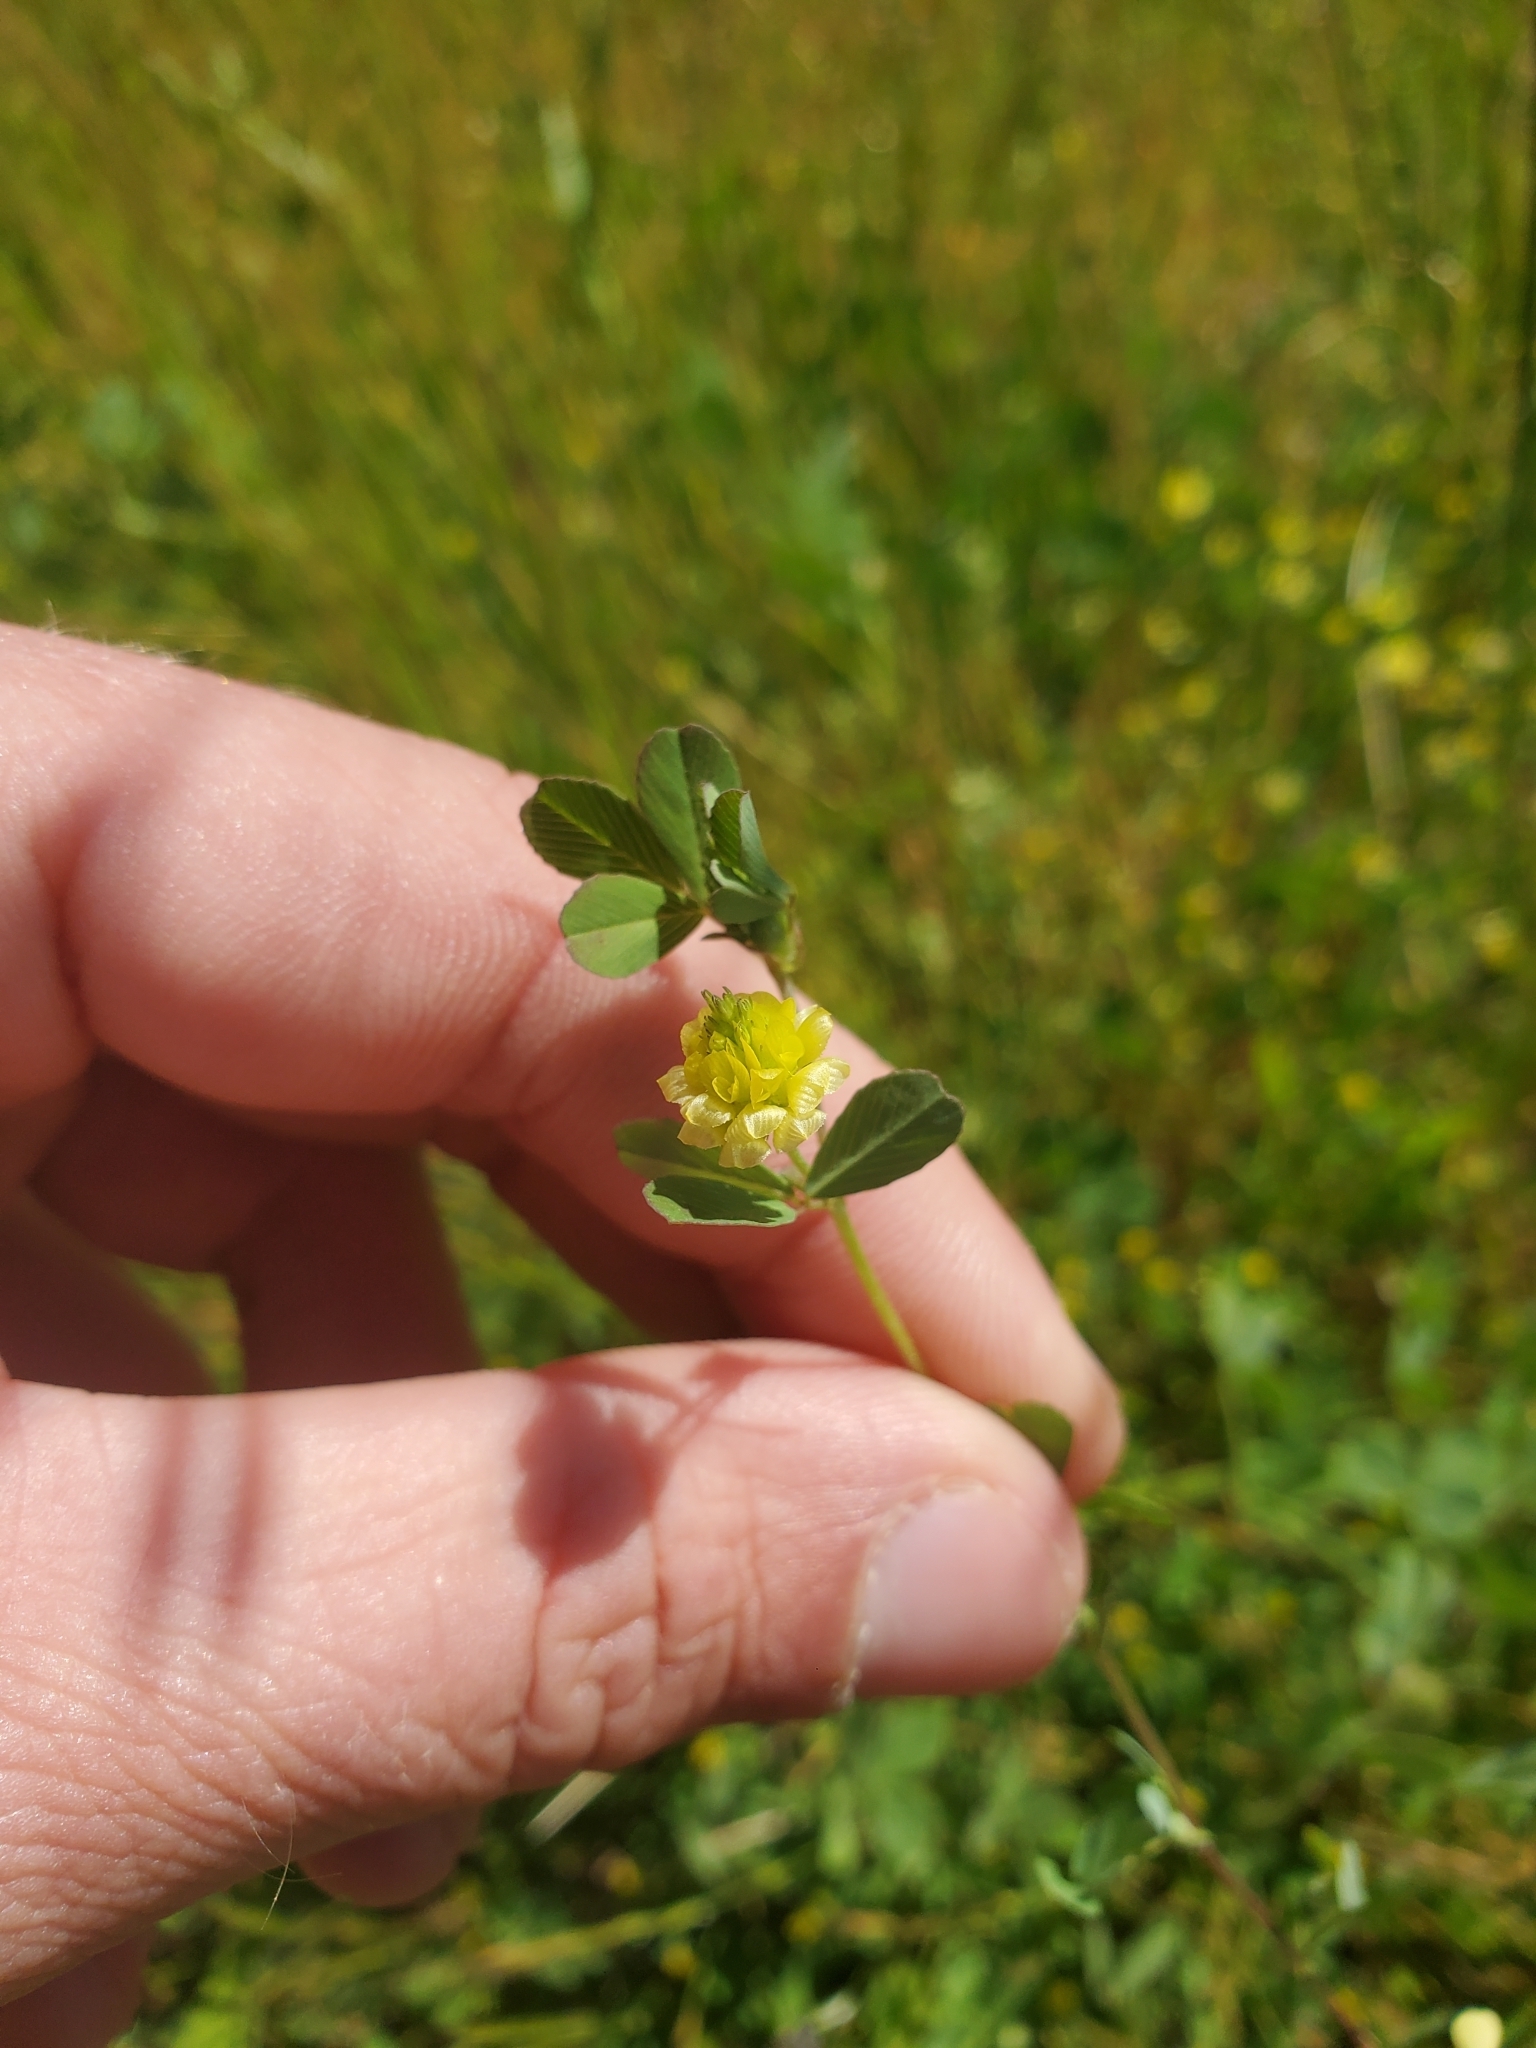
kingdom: Plantae
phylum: Tracheophyta
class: Magnoliopsida
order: Fabales
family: Fabaceae
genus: Trifolium
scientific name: Trifolium campestre
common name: Field clover
